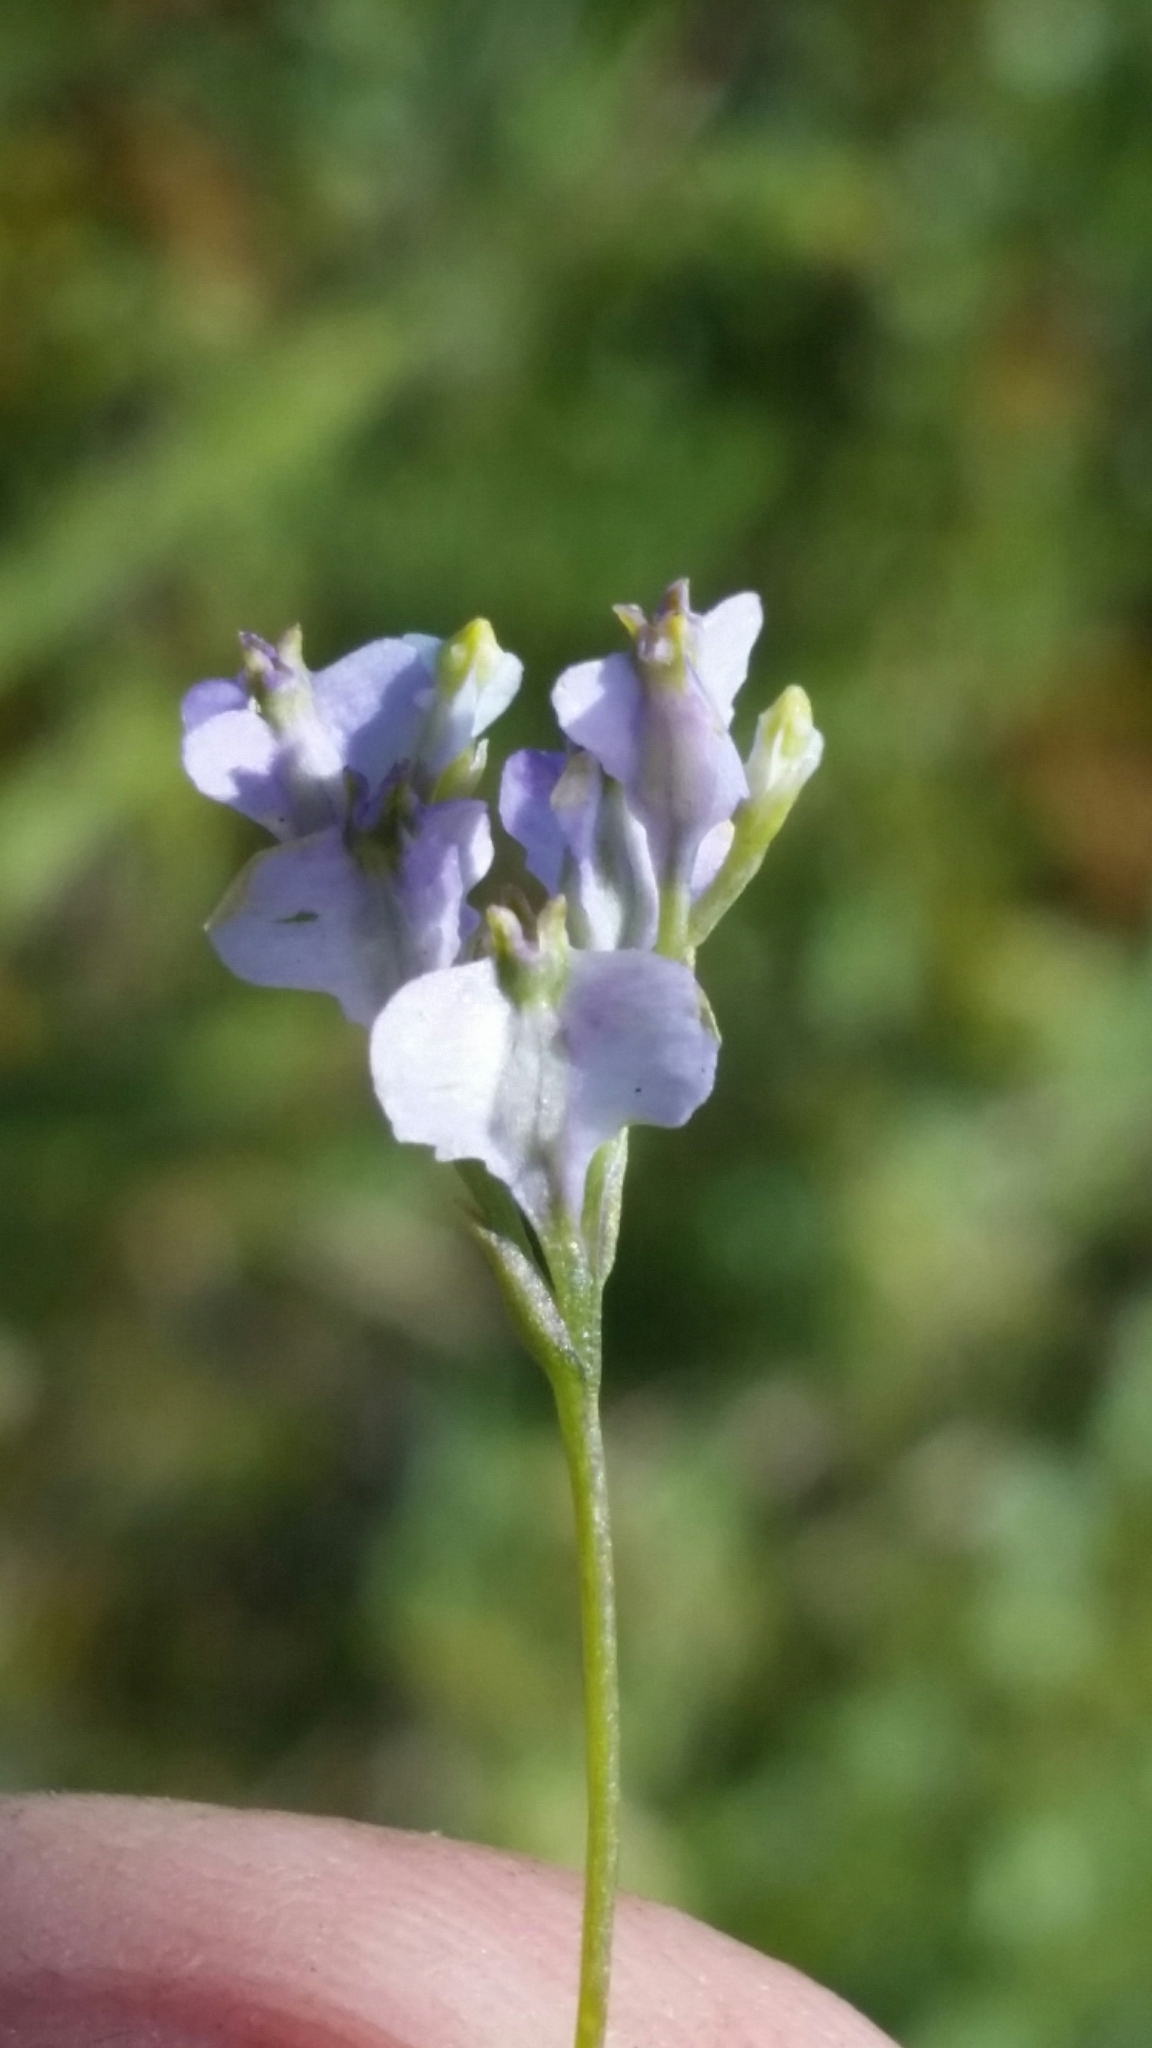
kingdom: Plantae
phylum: Tracheophyta
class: Liliopsida
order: Dioscoreales
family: Burmanniaceae
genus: Burmannia
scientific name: Burmannia biflora
